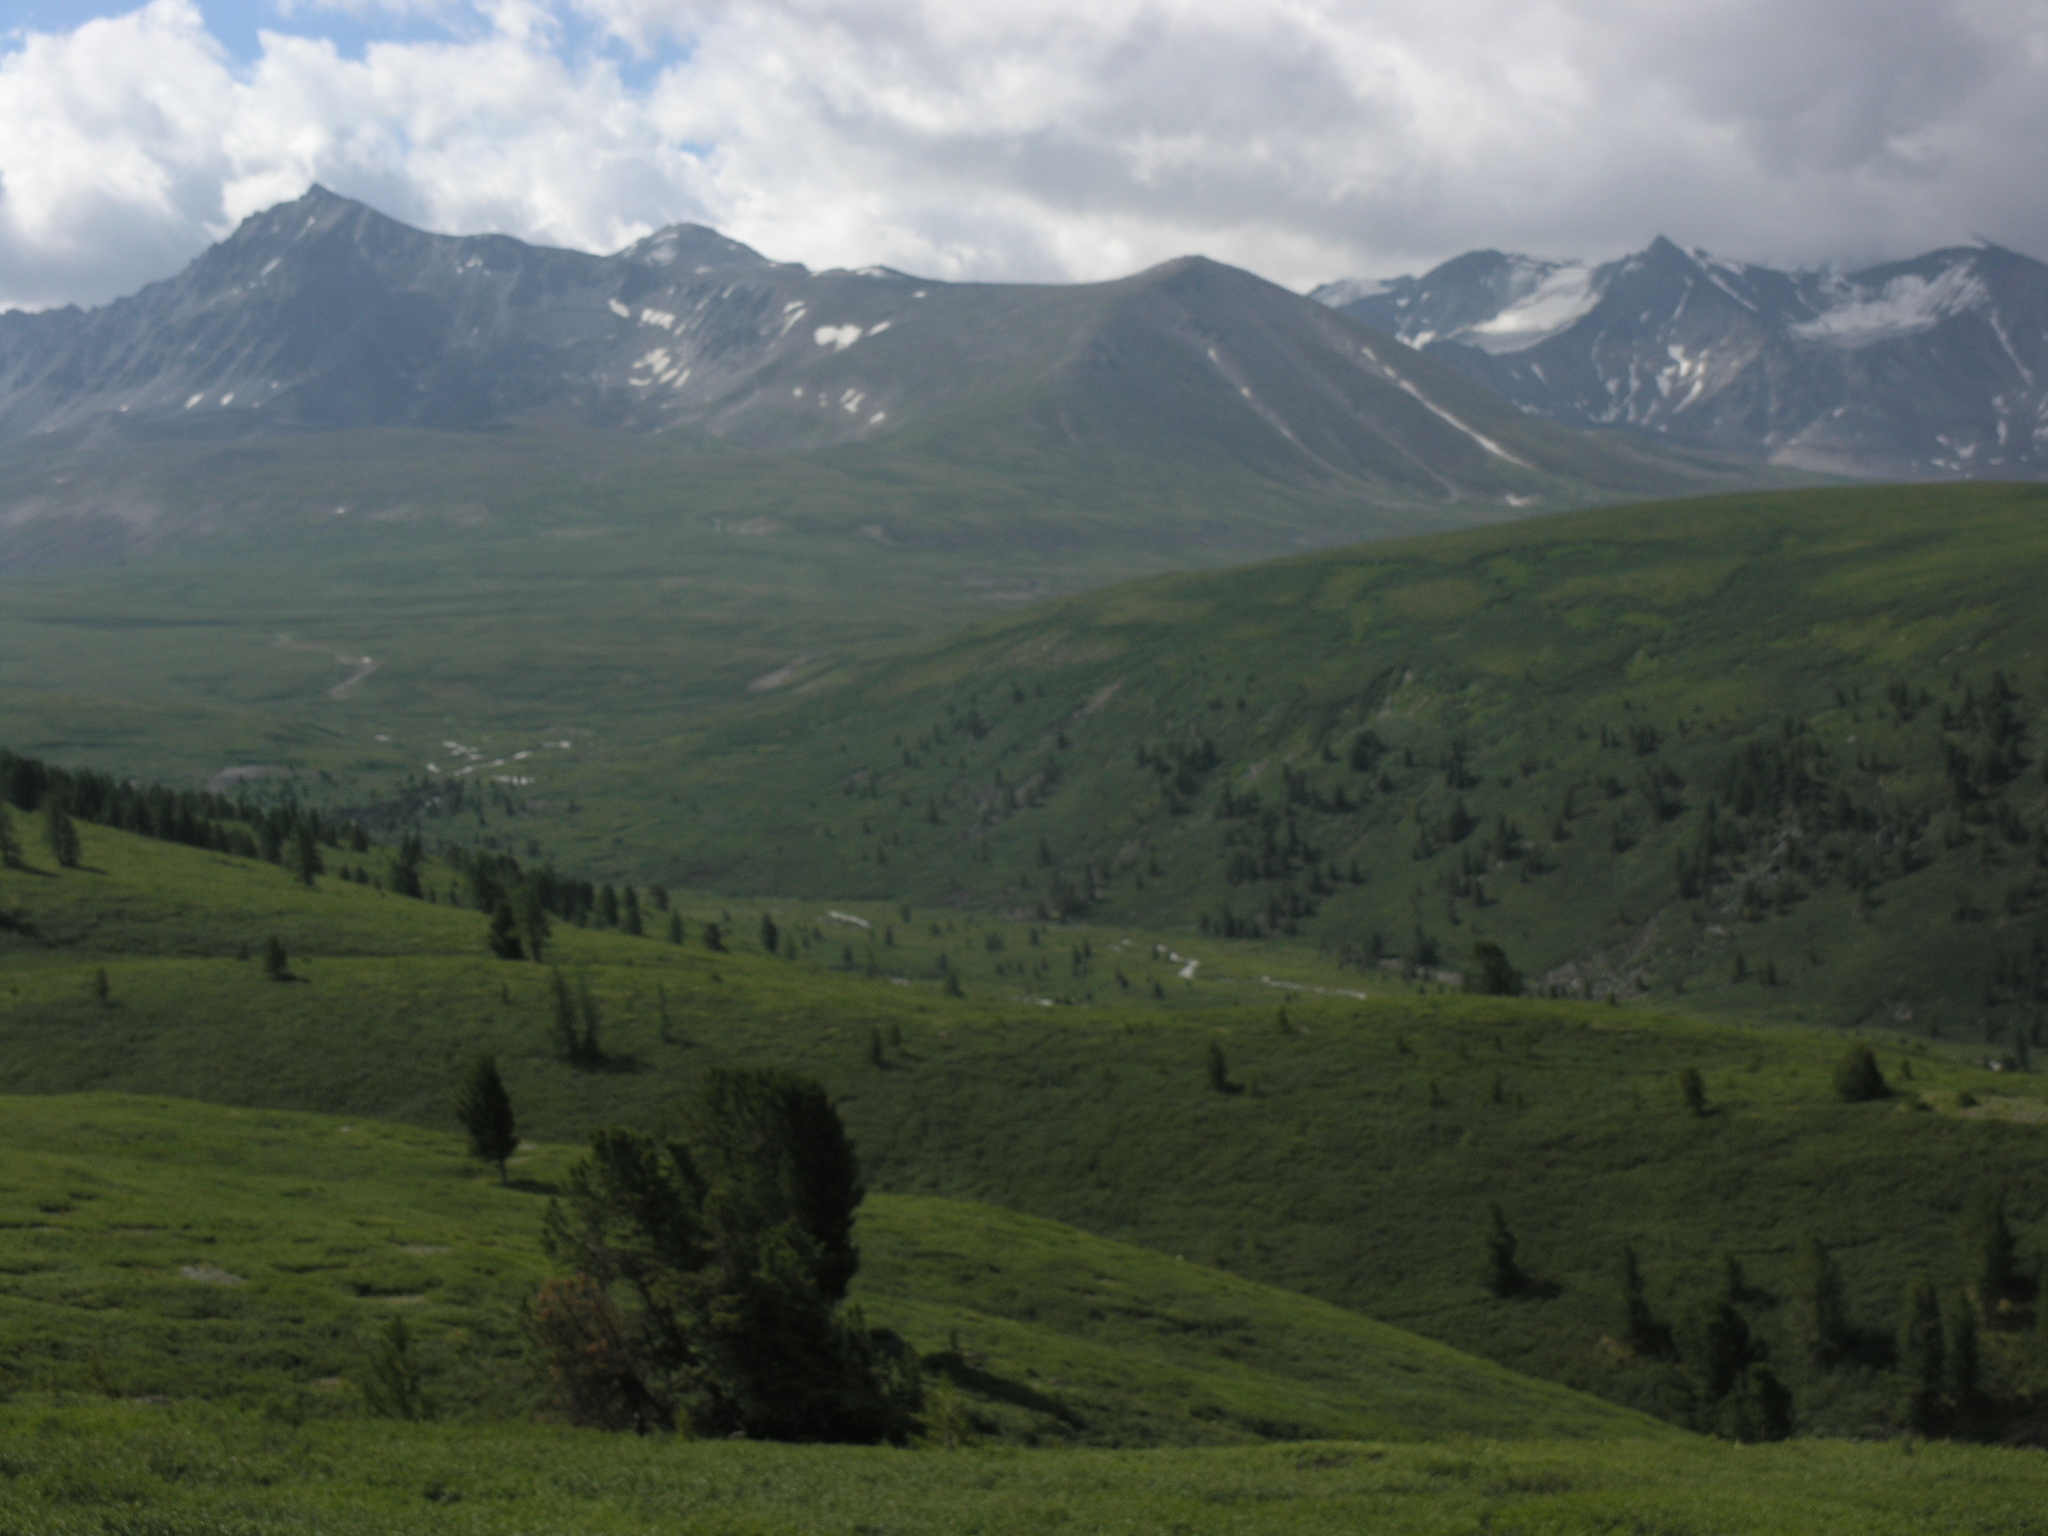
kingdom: Plantae
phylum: Tracheophyta
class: Pinopsida
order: Pinales
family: Pinaceae
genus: Pinus
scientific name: Pinus sibirica
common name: Siberian pine
